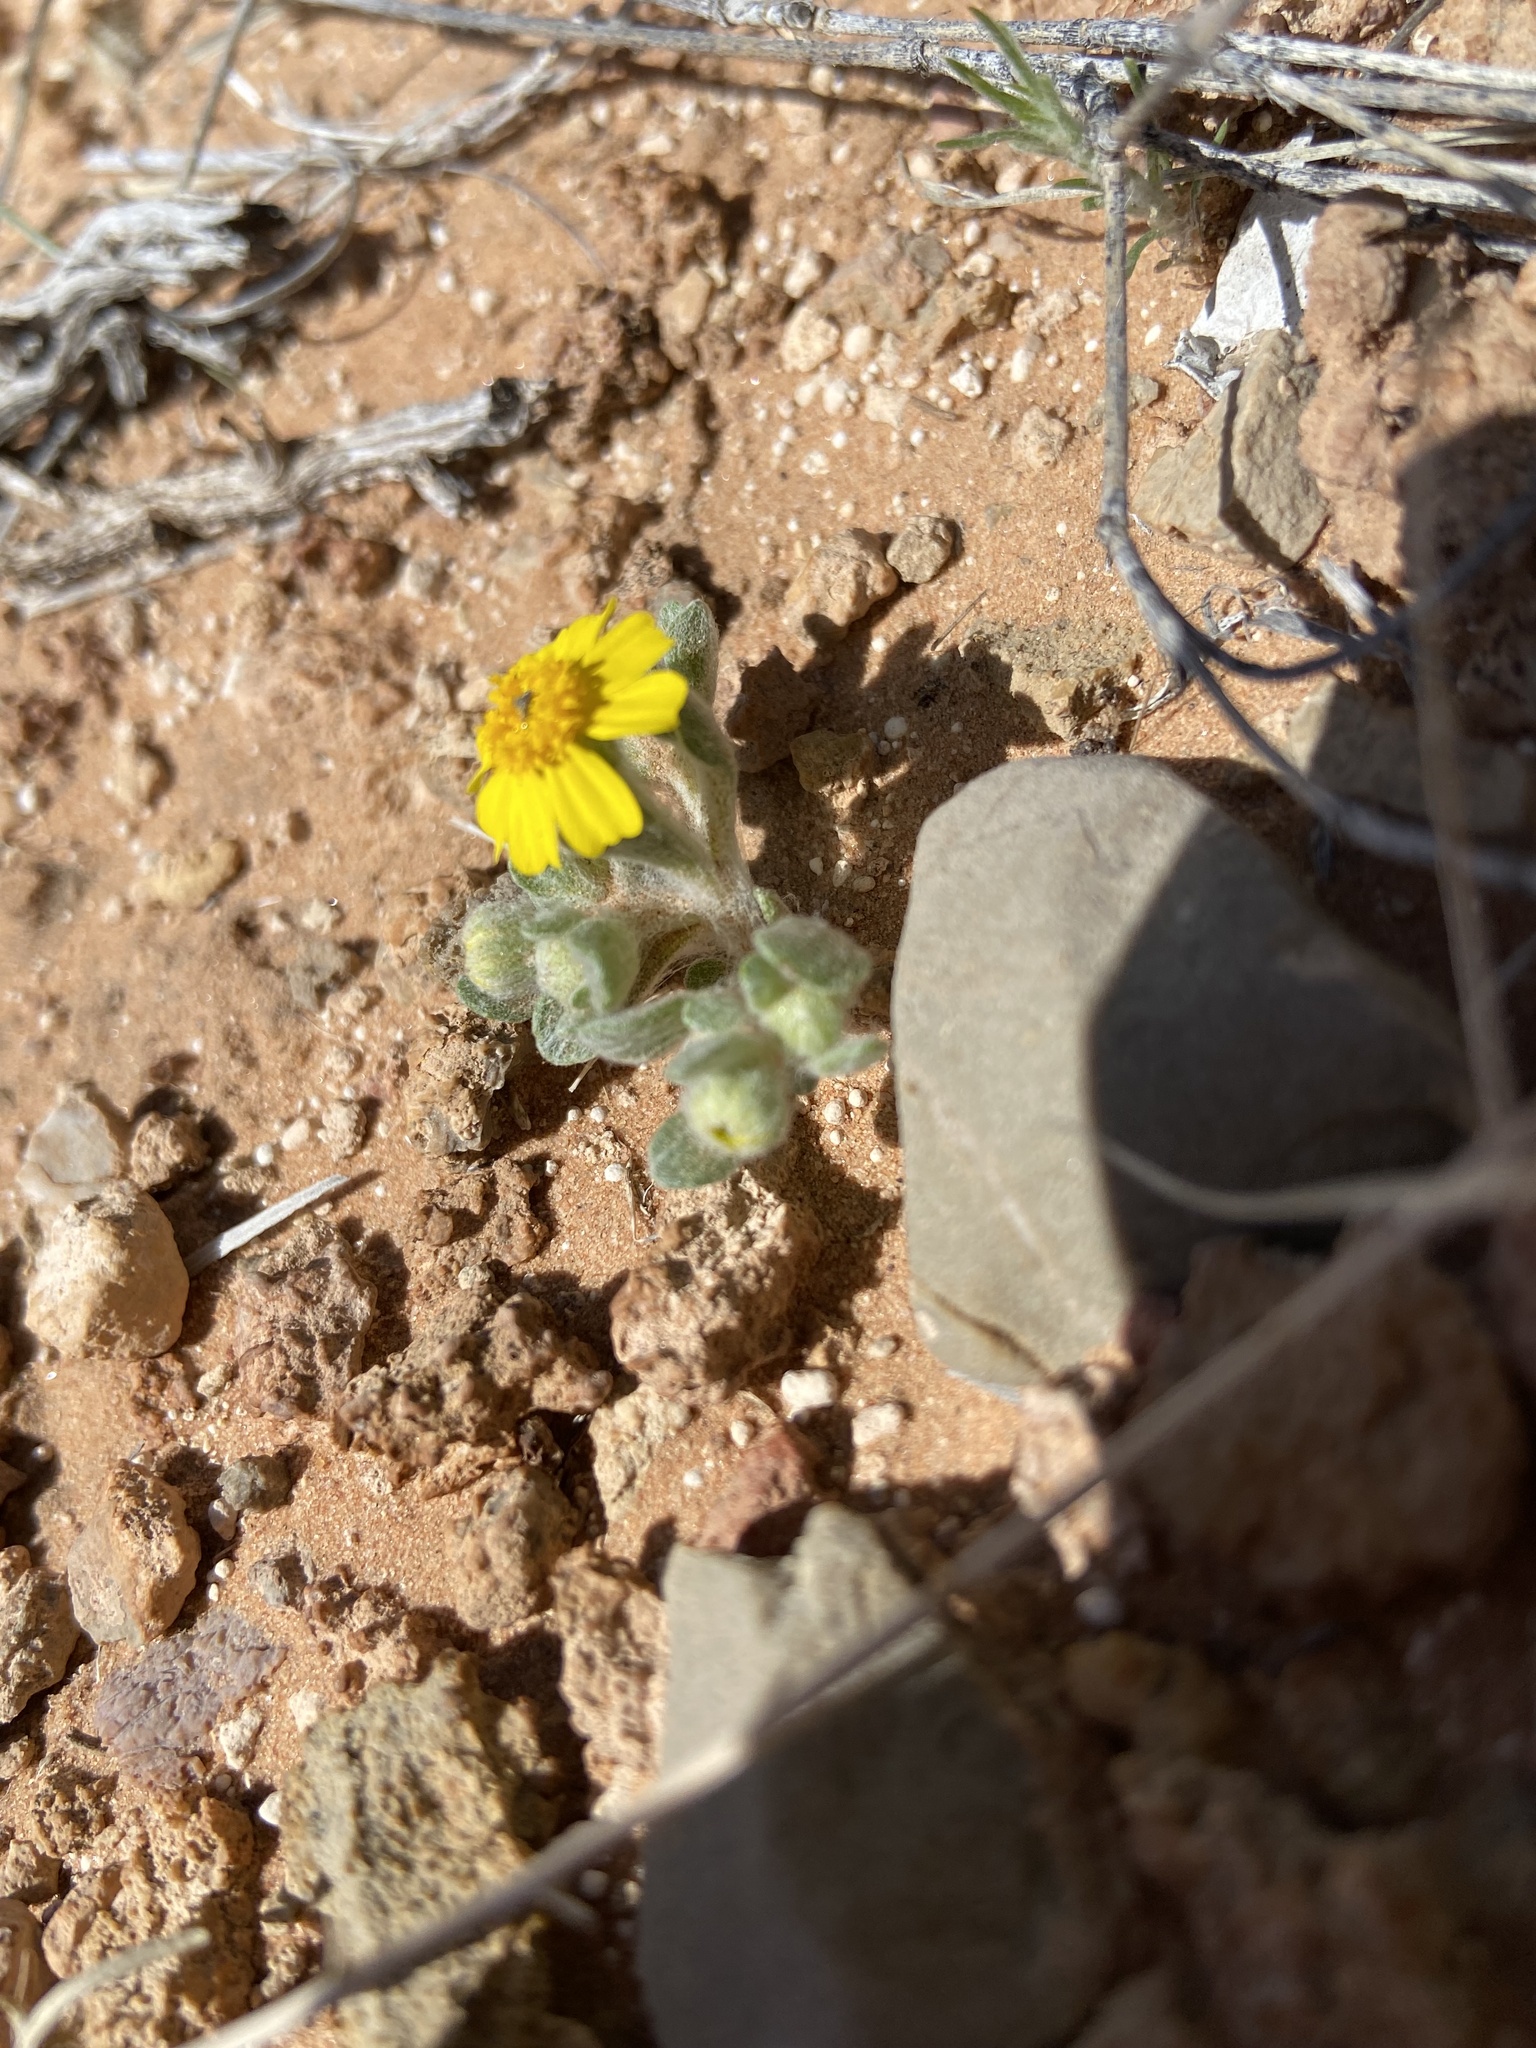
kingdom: Plantae
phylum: Tracheophyta
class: Magnoliopsida
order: Asterales
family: Asteraceae
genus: Eriophyllum
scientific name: Eriophyllum wallacei
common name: Wallace's woolly daisy
